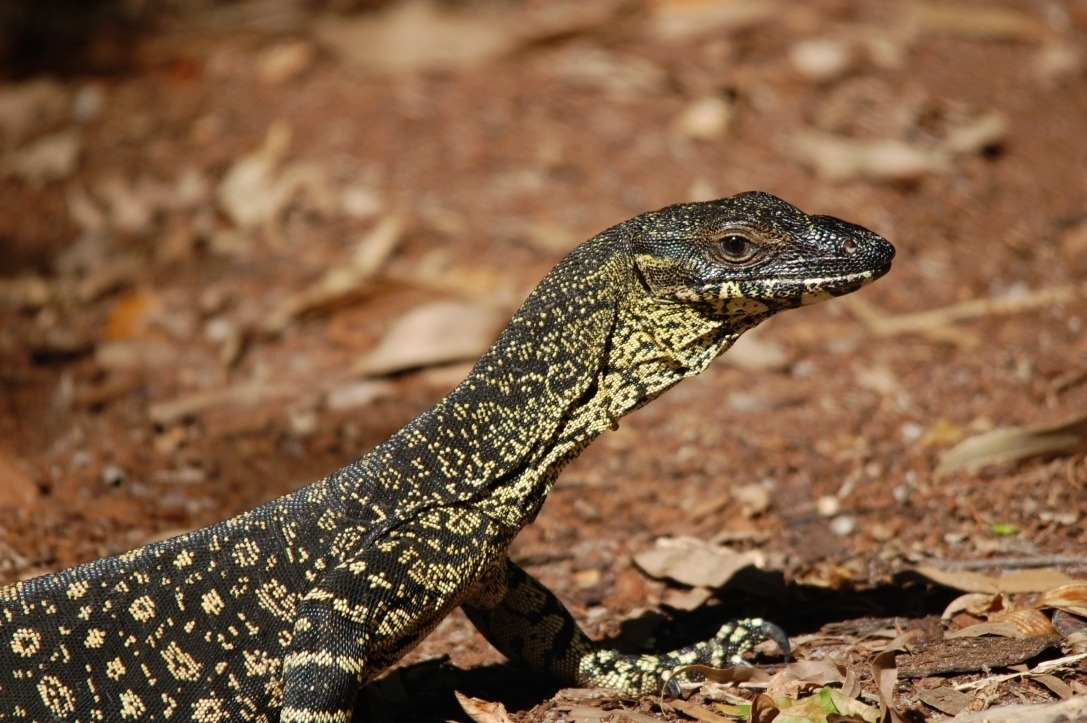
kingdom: Animalia
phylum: Chordata
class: Squamata
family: Varanidae
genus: Varanus
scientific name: Varanus varius
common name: Lace monitor
